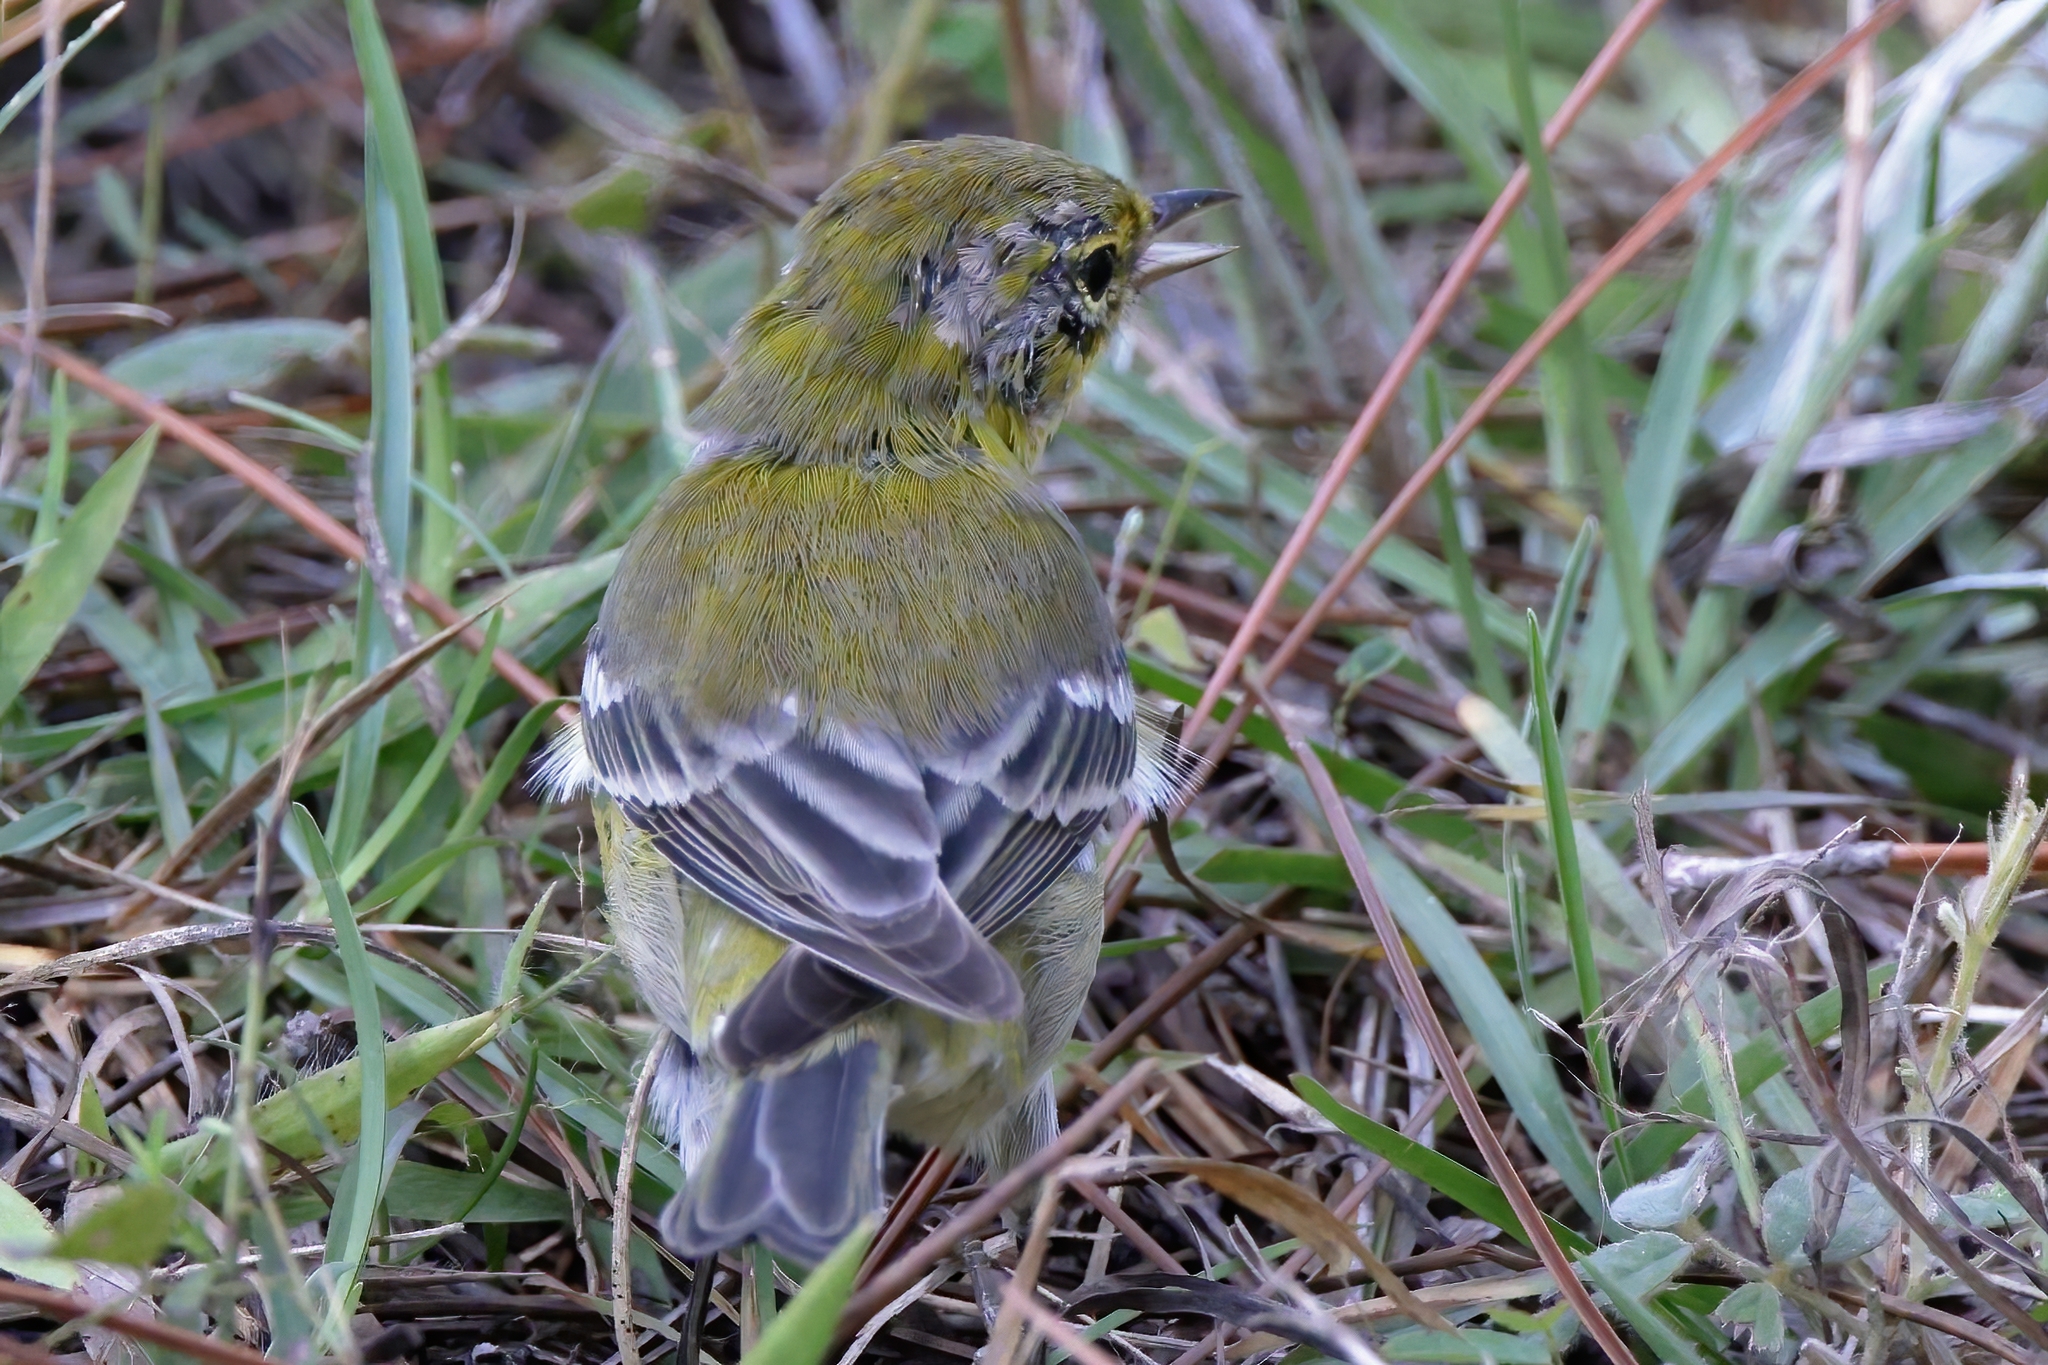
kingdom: Animalia
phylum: Chordata
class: Aves
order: Passeriformes
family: Parulidae
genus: Setophaga
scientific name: Setophaga pinus
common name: Pine warbler
